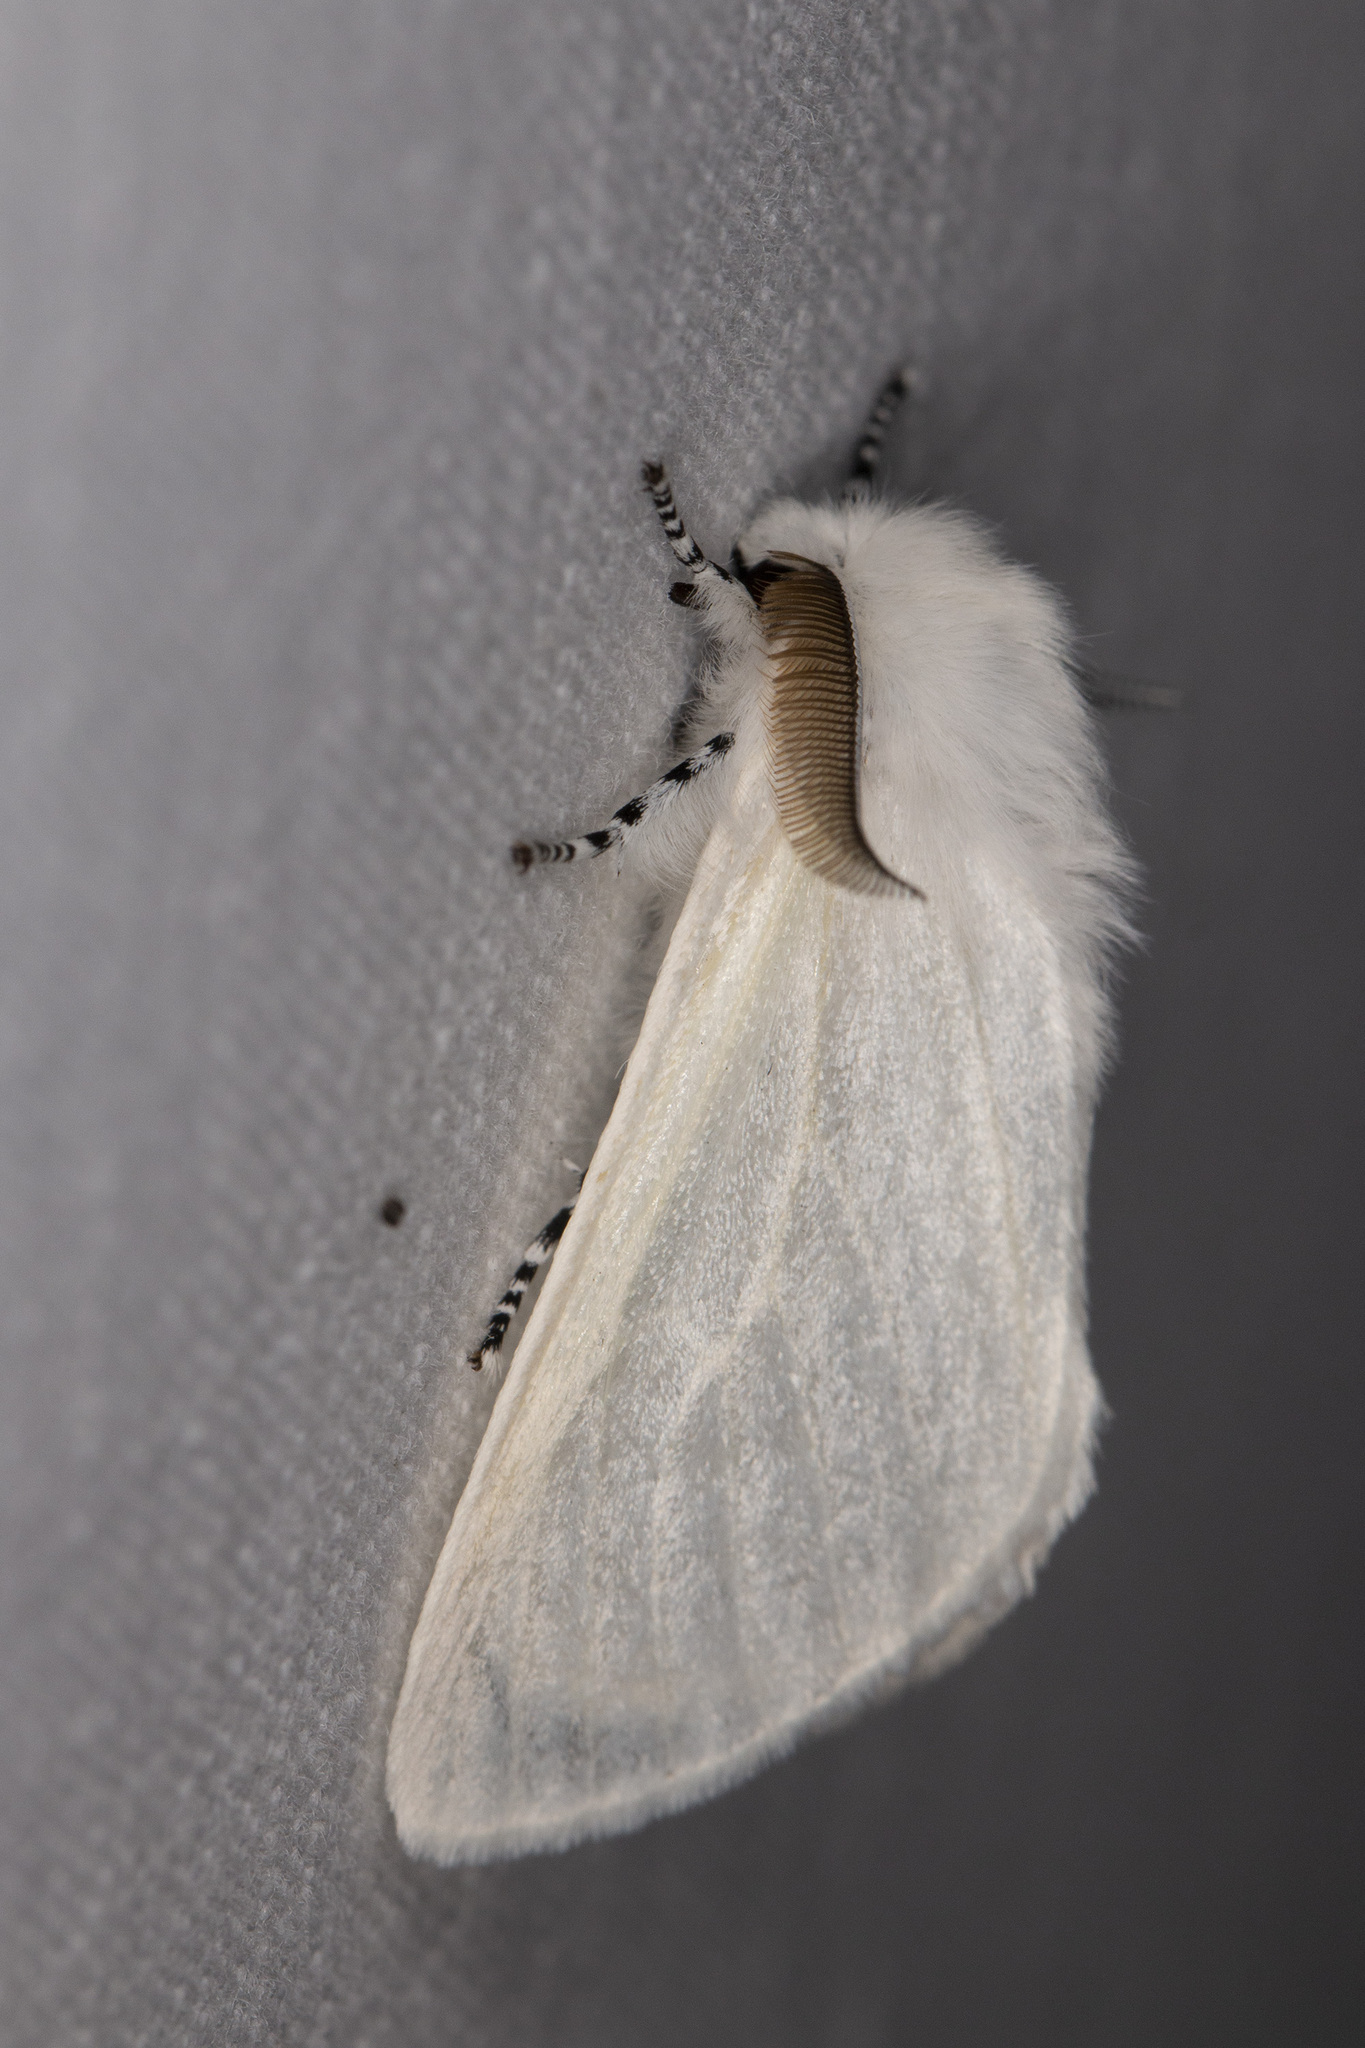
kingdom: Animalia
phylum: Arthropoda
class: Insecta
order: Lepidoptera
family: Erebidae
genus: Leucoma
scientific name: Leucoma salicis
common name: White satin moth
